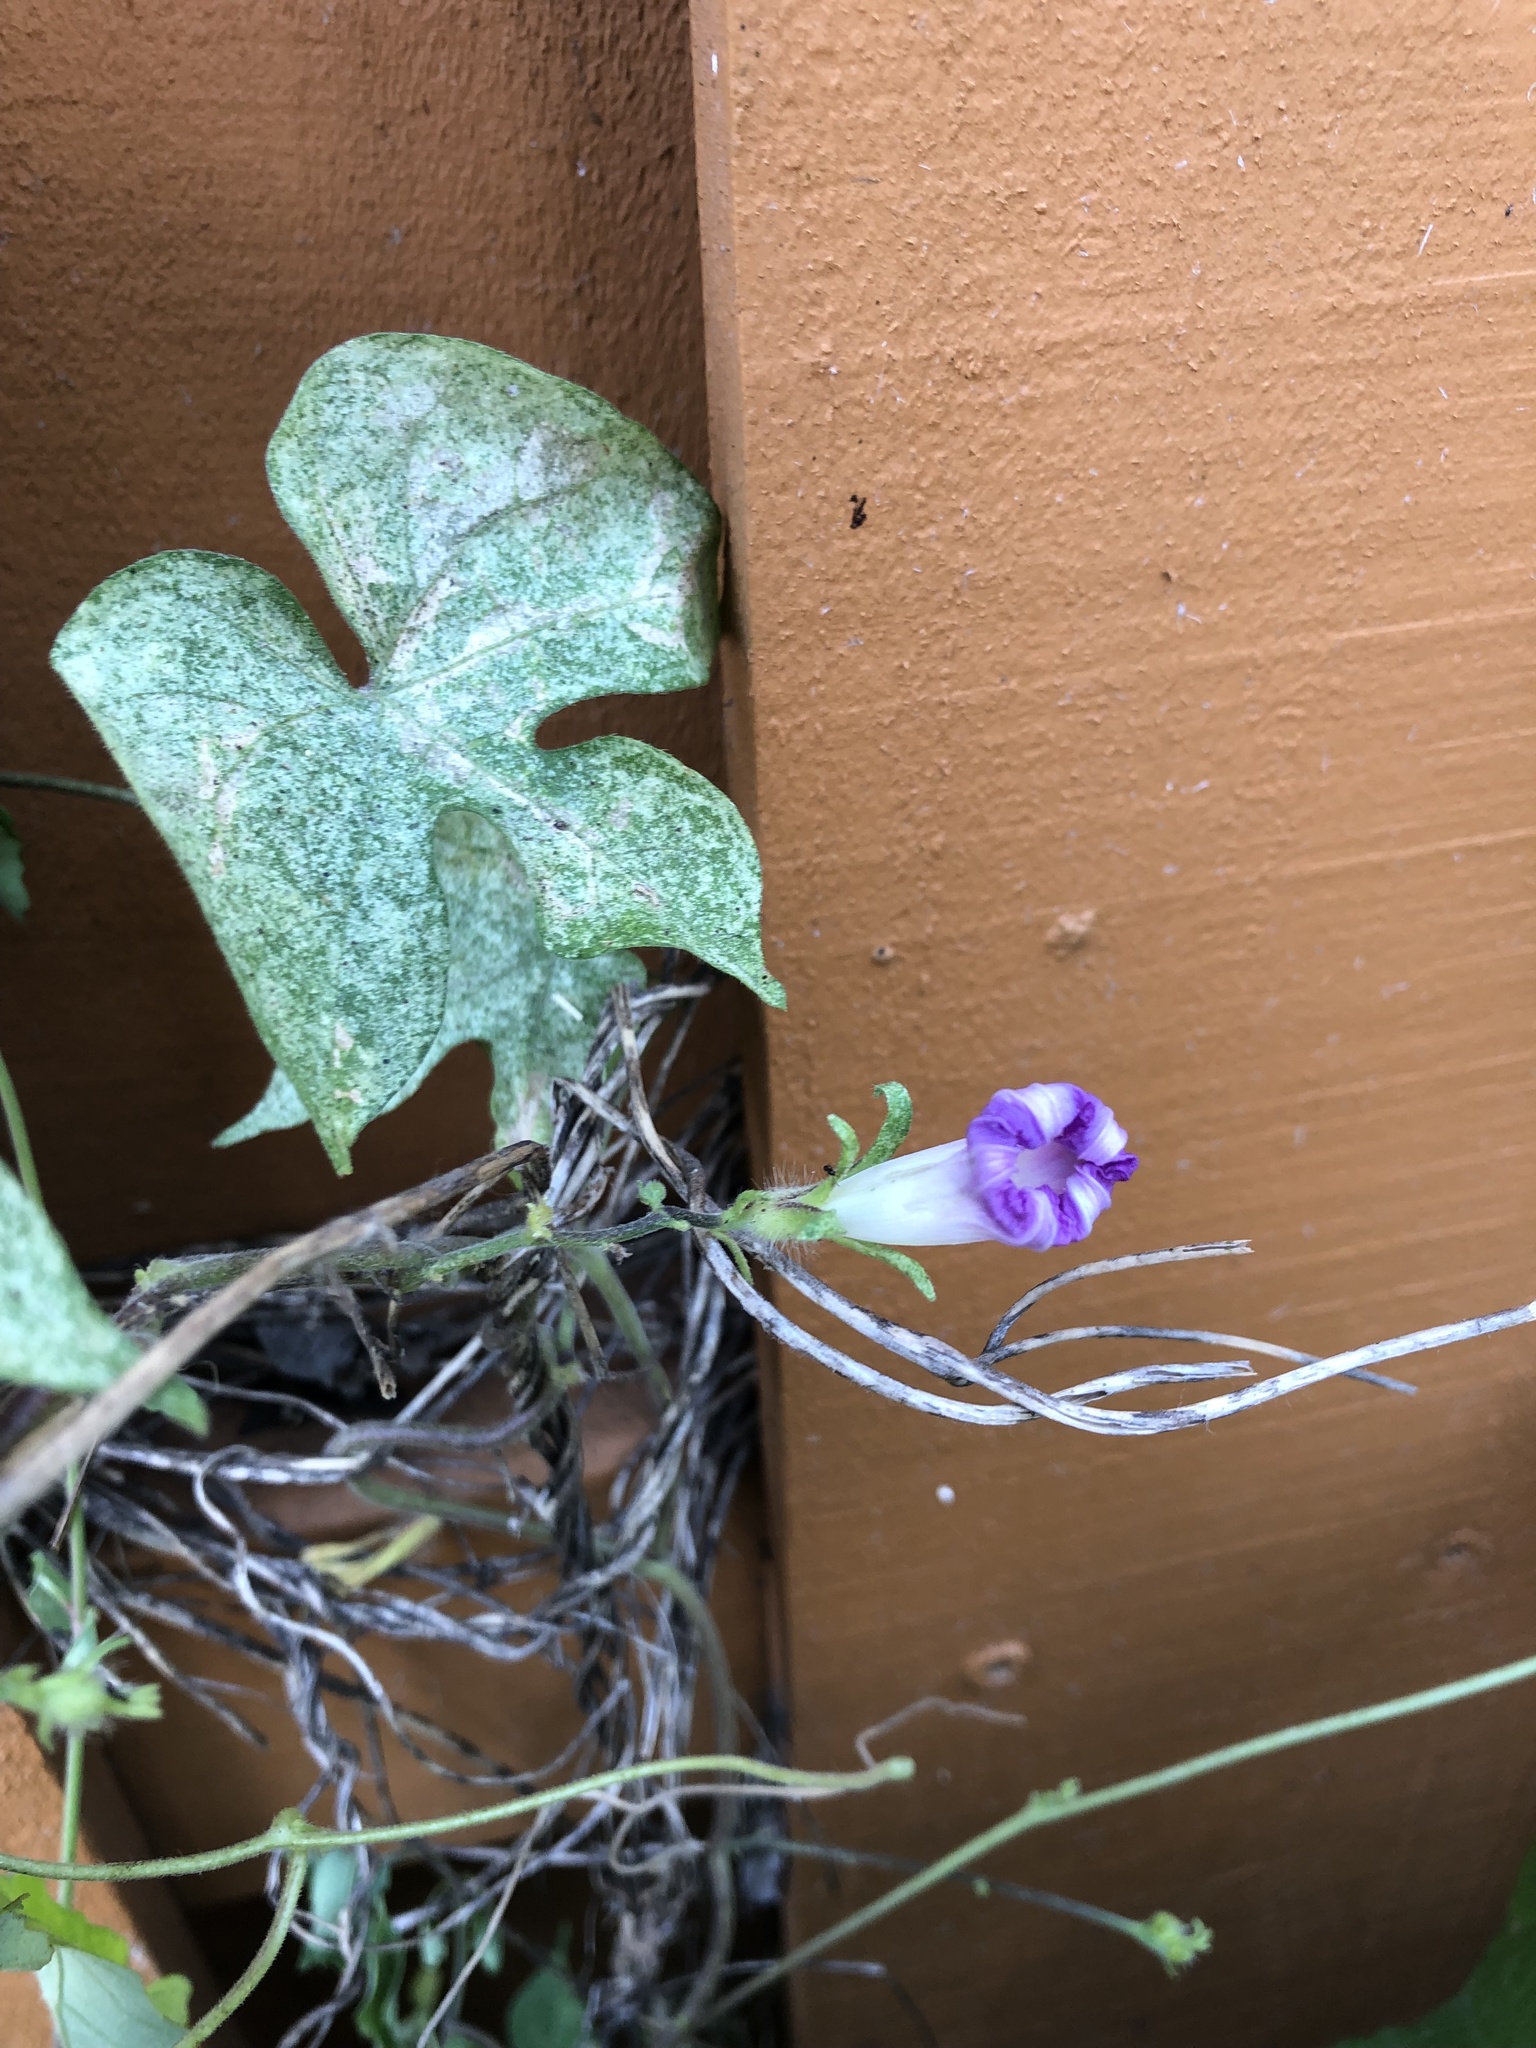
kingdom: Plantae
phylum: Tracheophyta
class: Magnoliopsida
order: Solanales
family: Convolvulaceae
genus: Ipomoea
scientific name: Ipomoea hederacea
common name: Ivy-leaved morning-glory
